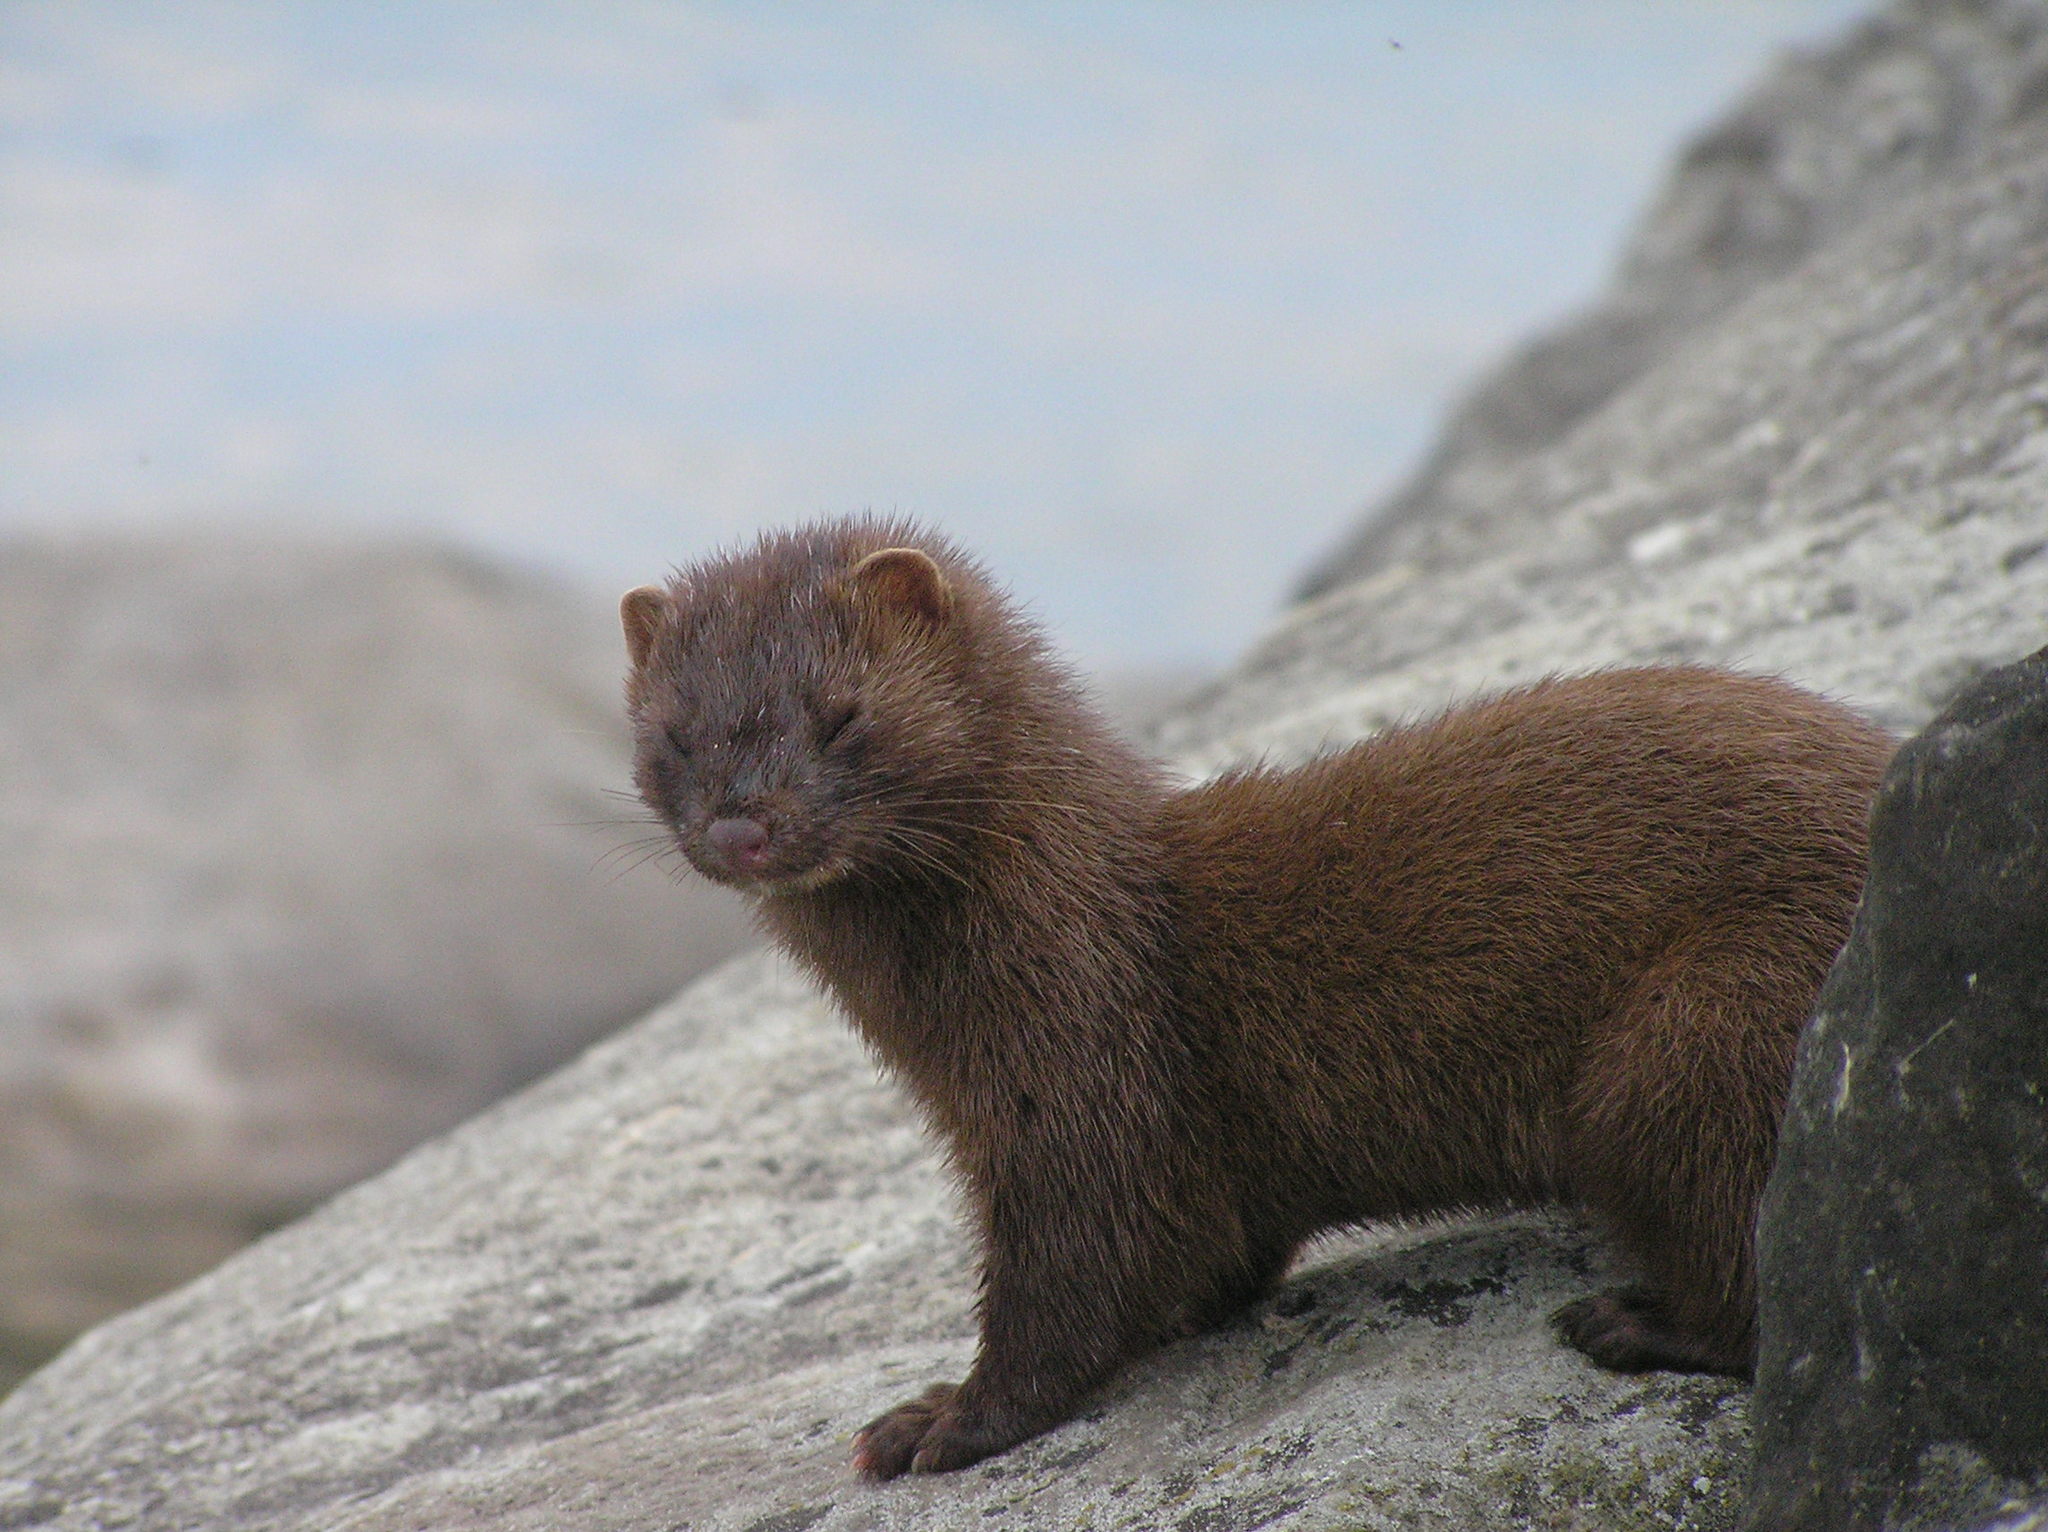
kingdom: Animalia
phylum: Chordata
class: Mammalia
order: Carnivora
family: Mustelidae
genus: Mustela
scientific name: Mustela
